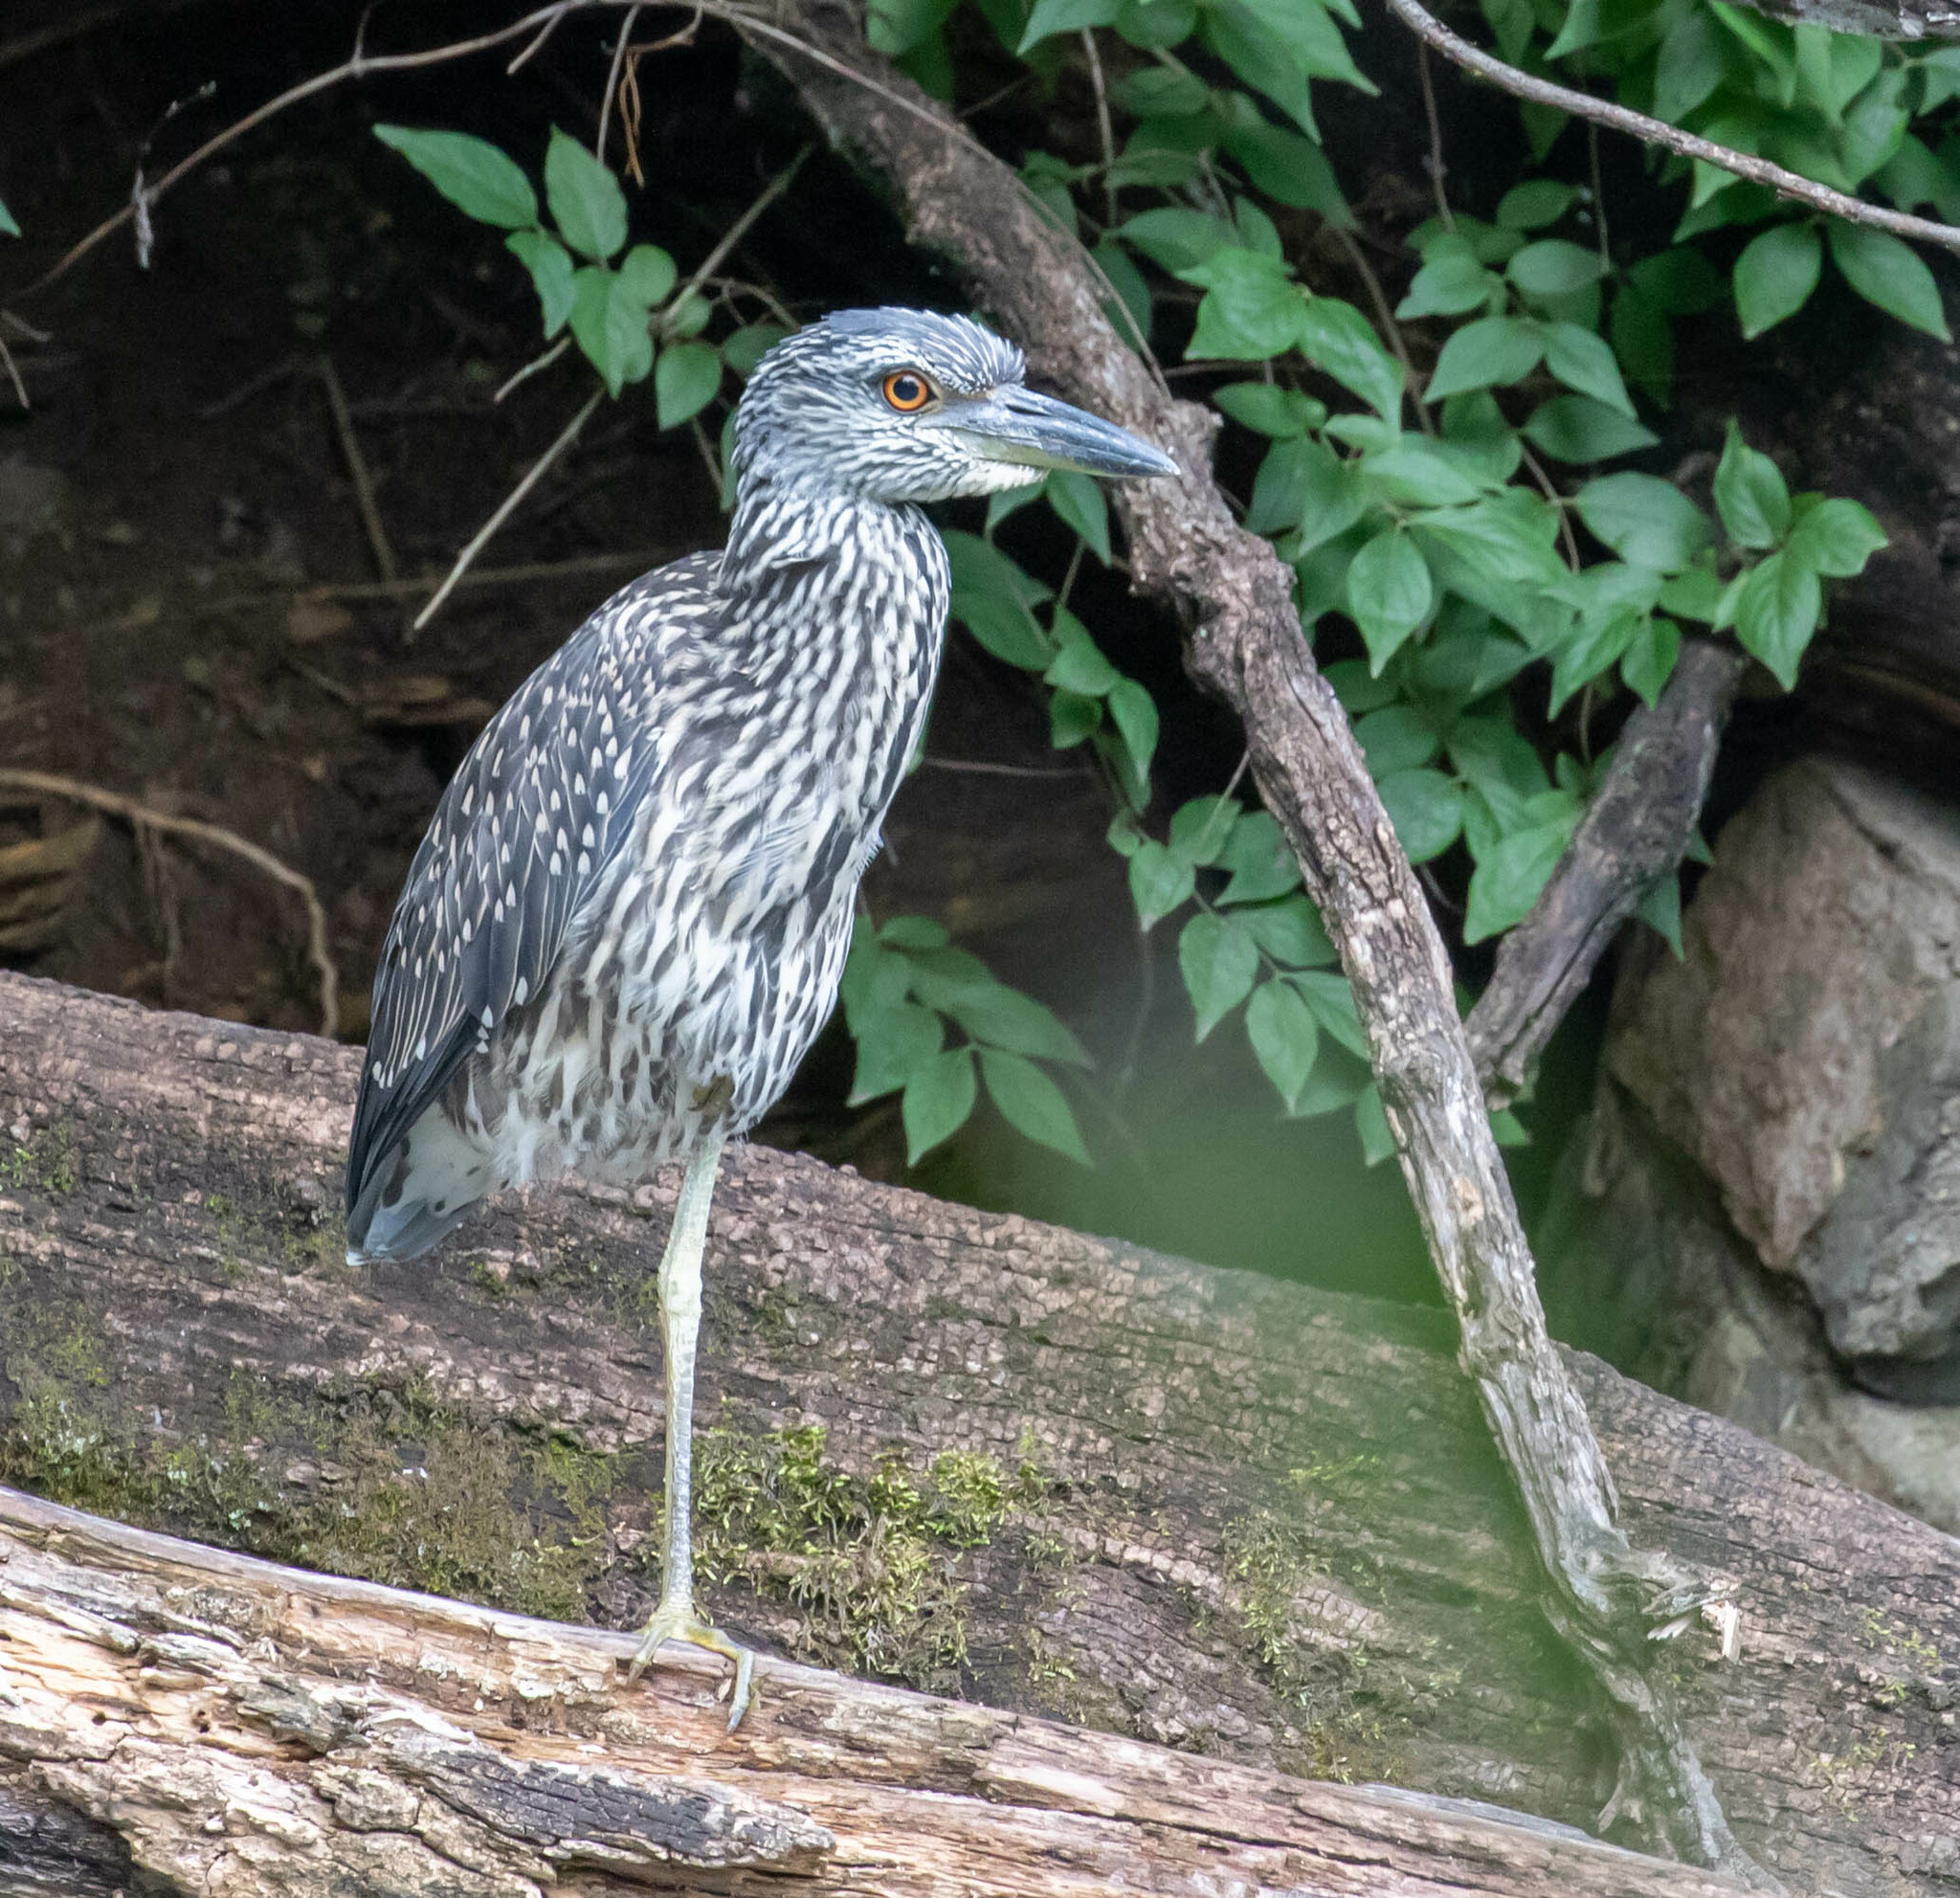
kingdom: Animalia
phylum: Chordata
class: Aves
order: Pelecaniformes
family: Ardeidae
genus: Nyctanassa
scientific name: Nyctanassa violacea
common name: Yellow-crowned night heron
